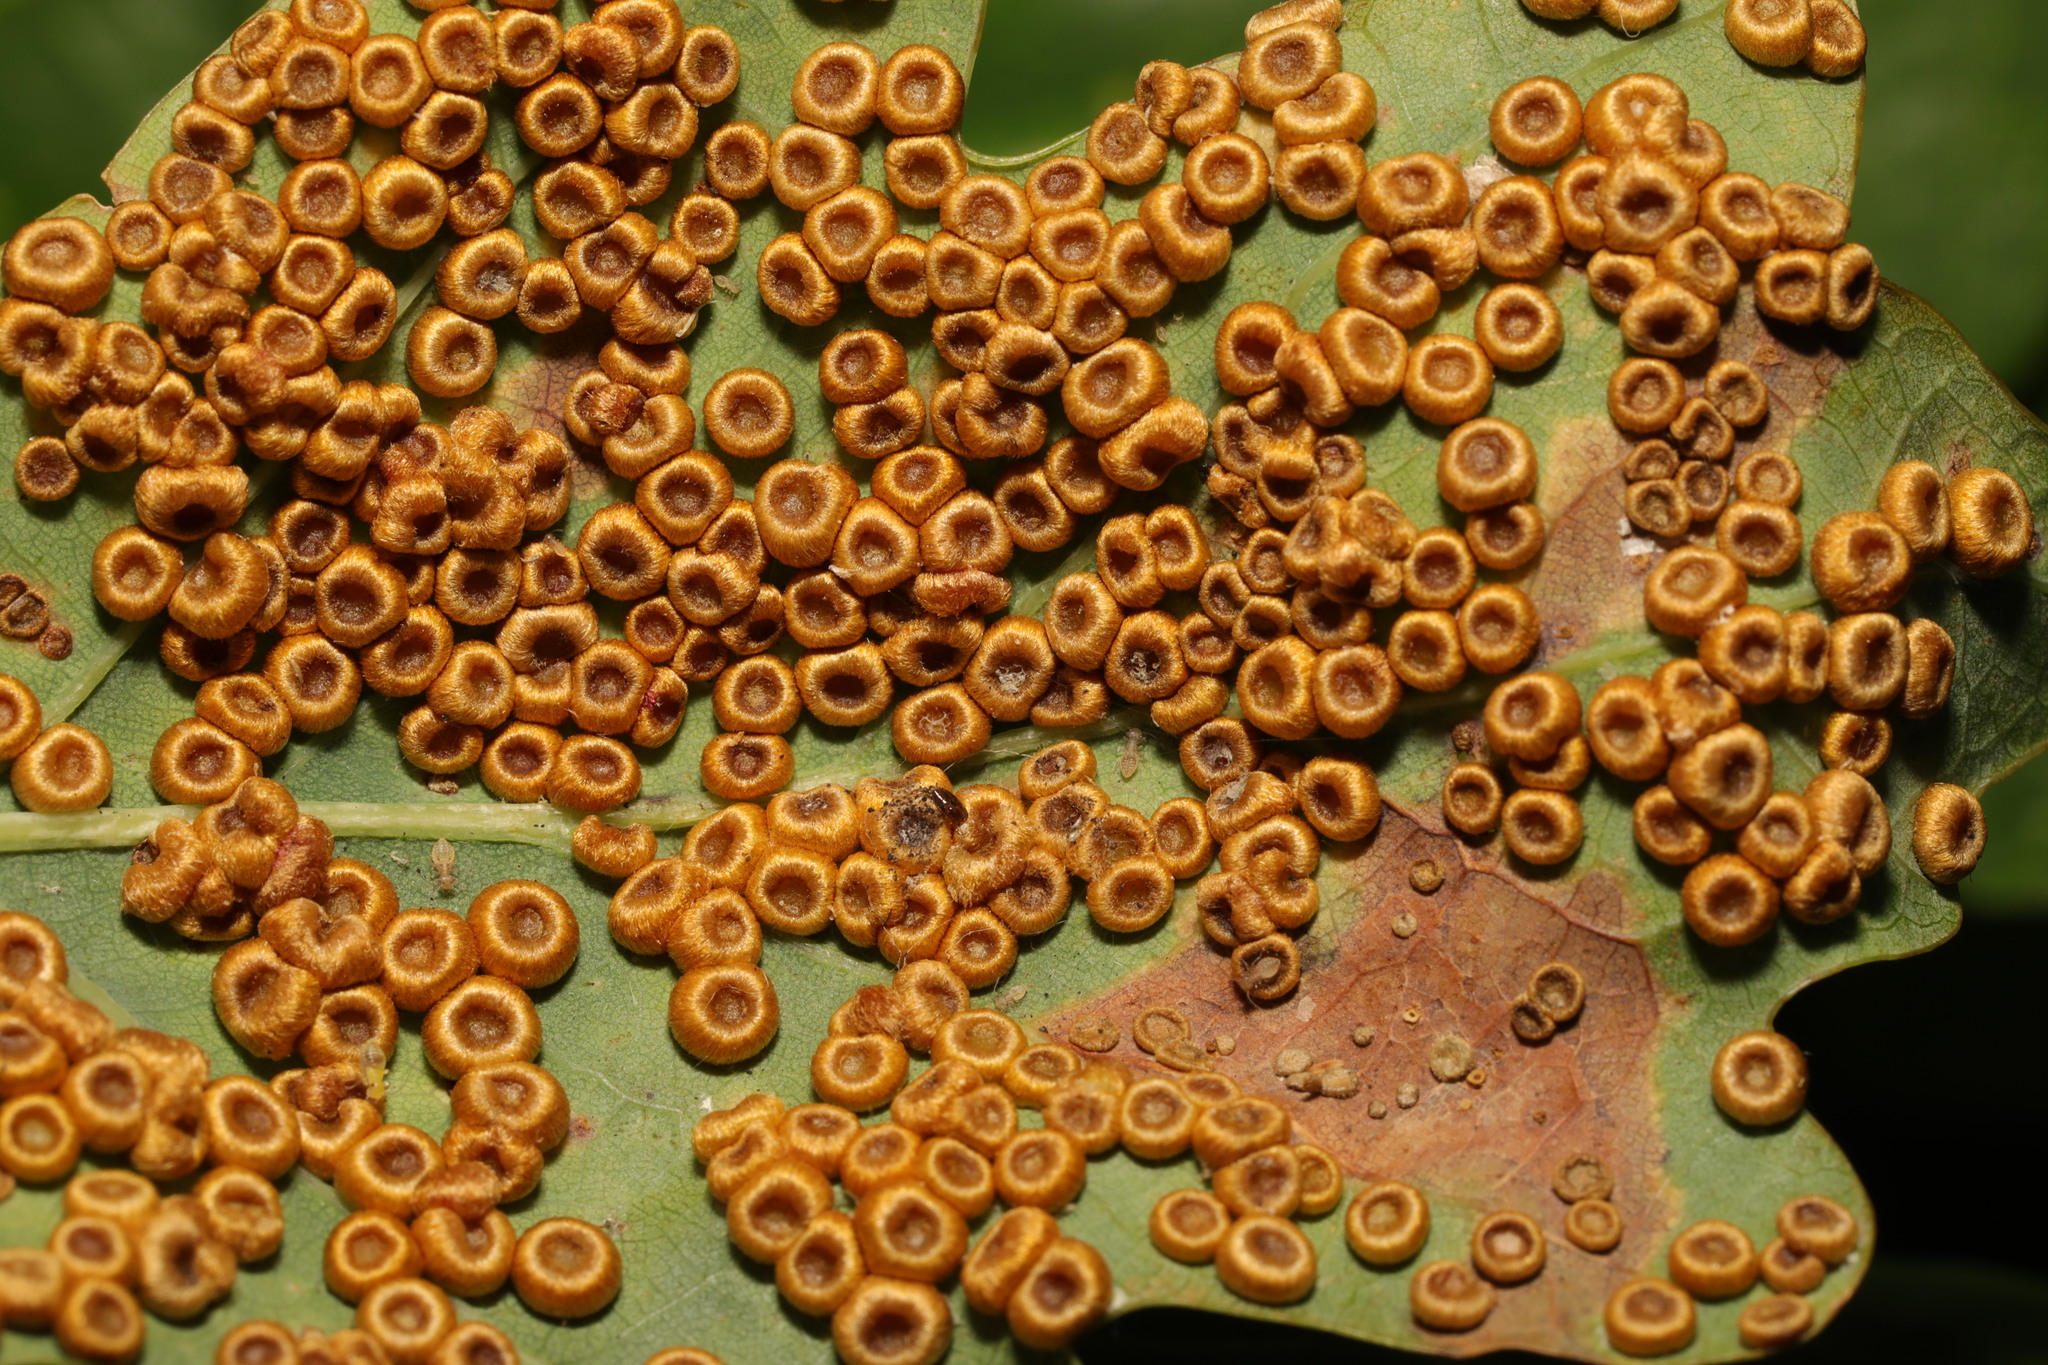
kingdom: Animalia
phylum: Arthropoda
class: Insecta
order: Hymenoptera
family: Cynipidae
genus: Neuroterus
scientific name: Neuroterus numismalis
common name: Silk-button spangle gall
